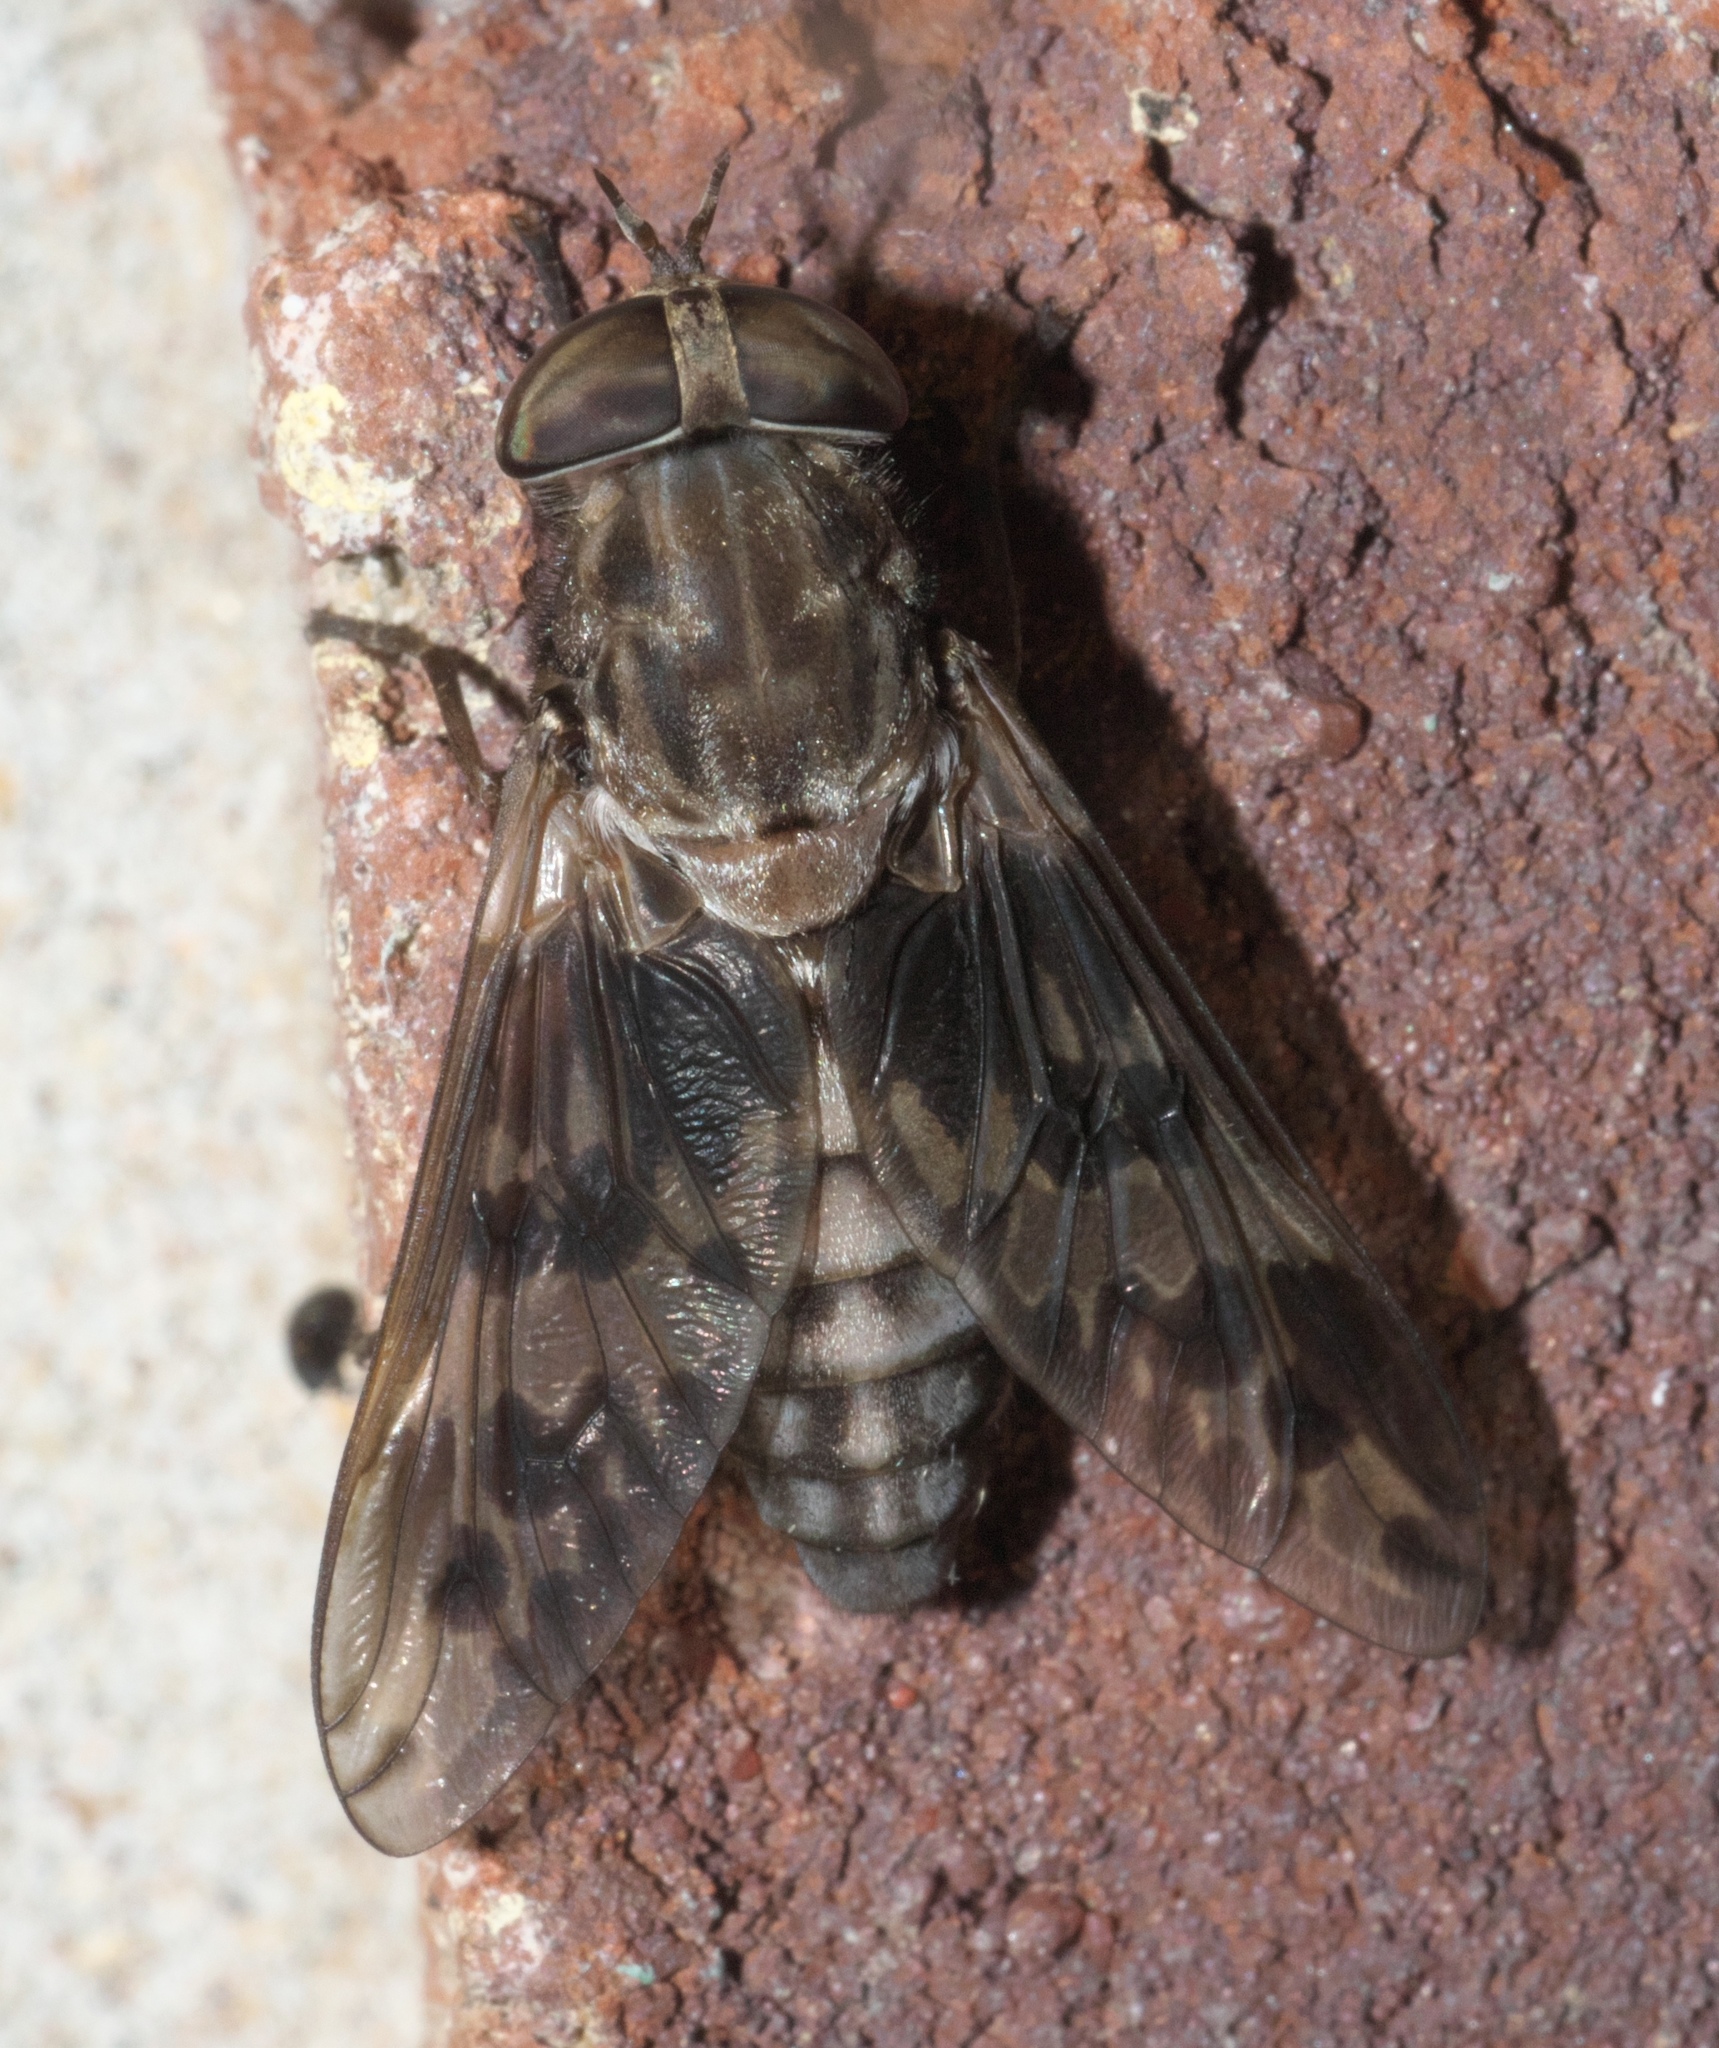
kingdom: Animalia
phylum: Arthropoda
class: Insecta
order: Diptera
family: Tabanidae
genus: Tabanus
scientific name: Tabanus venustus
